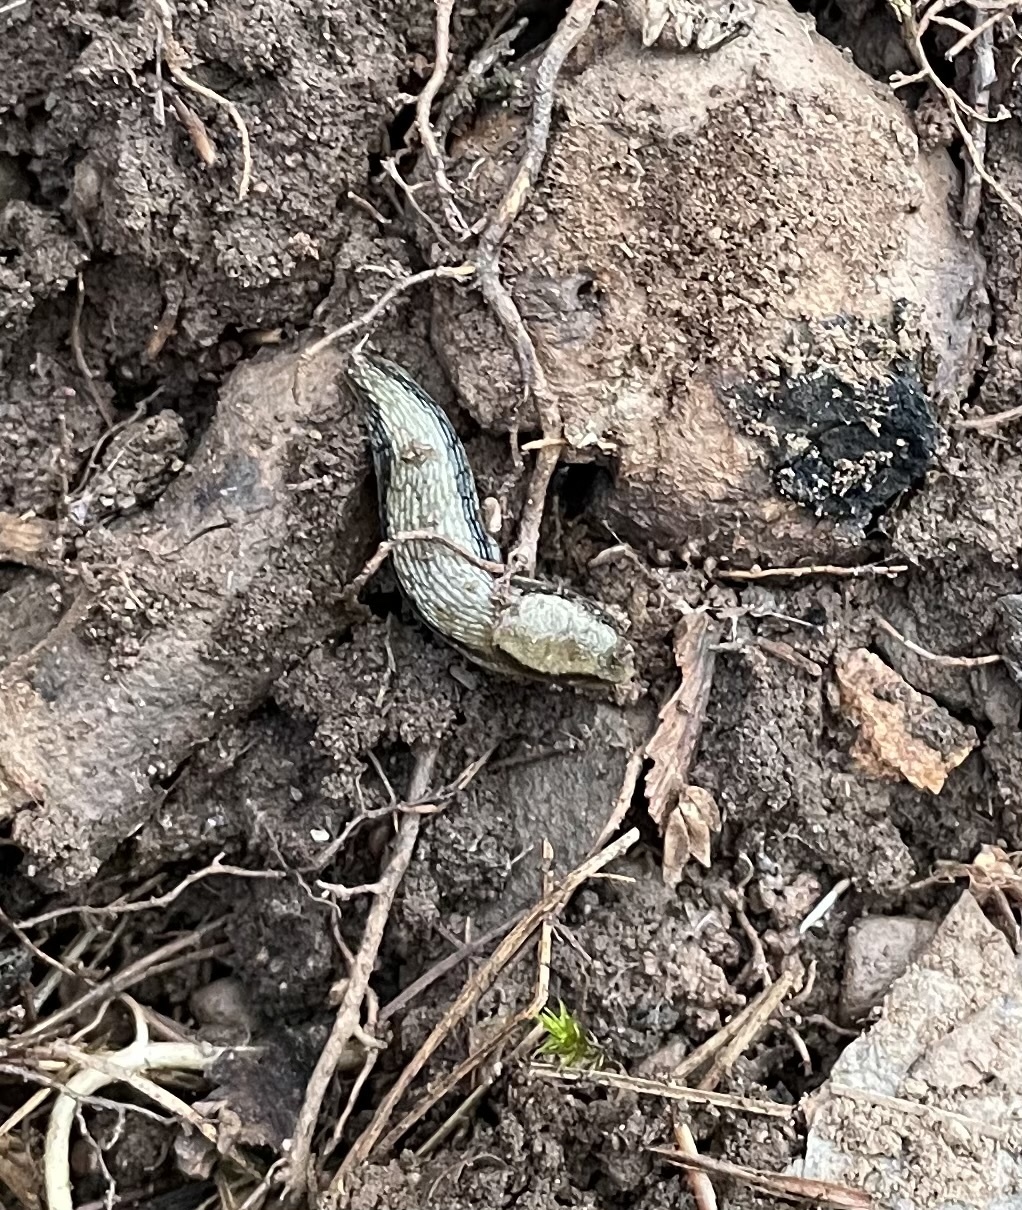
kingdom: Animalia
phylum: Mollusca
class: Gastropoda
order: Stylommatophora
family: Arionidae
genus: Arion
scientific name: Arion subfuscus
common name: Dusky arion
